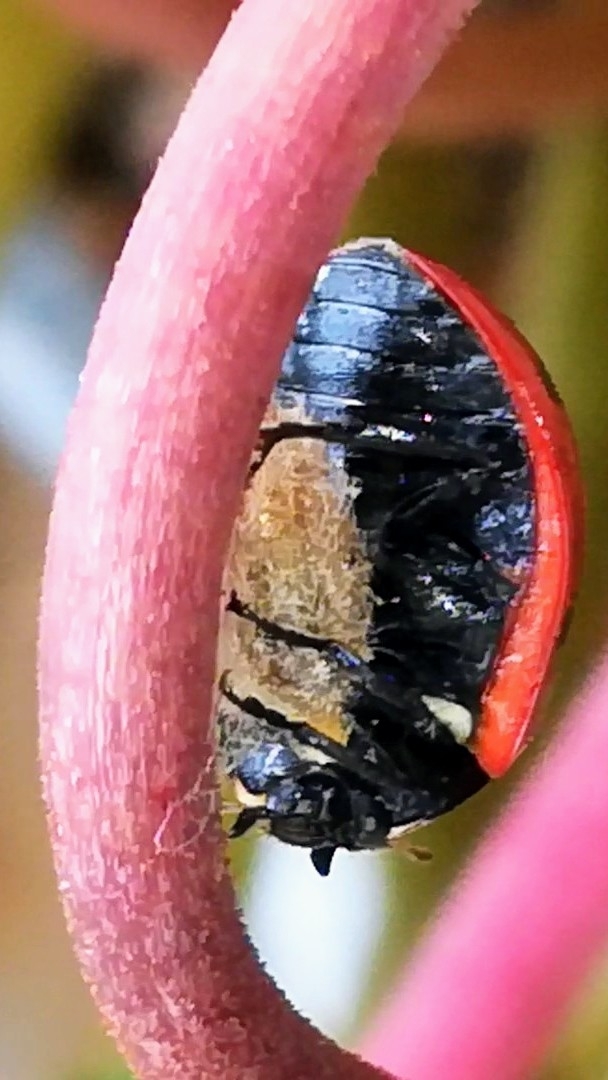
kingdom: Animalia
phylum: Arthropoda
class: Insecta
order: Hymenoptera
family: Braconidae
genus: Dinocampus
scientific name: Dinocampus coccinellae
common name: Braconid wasp
